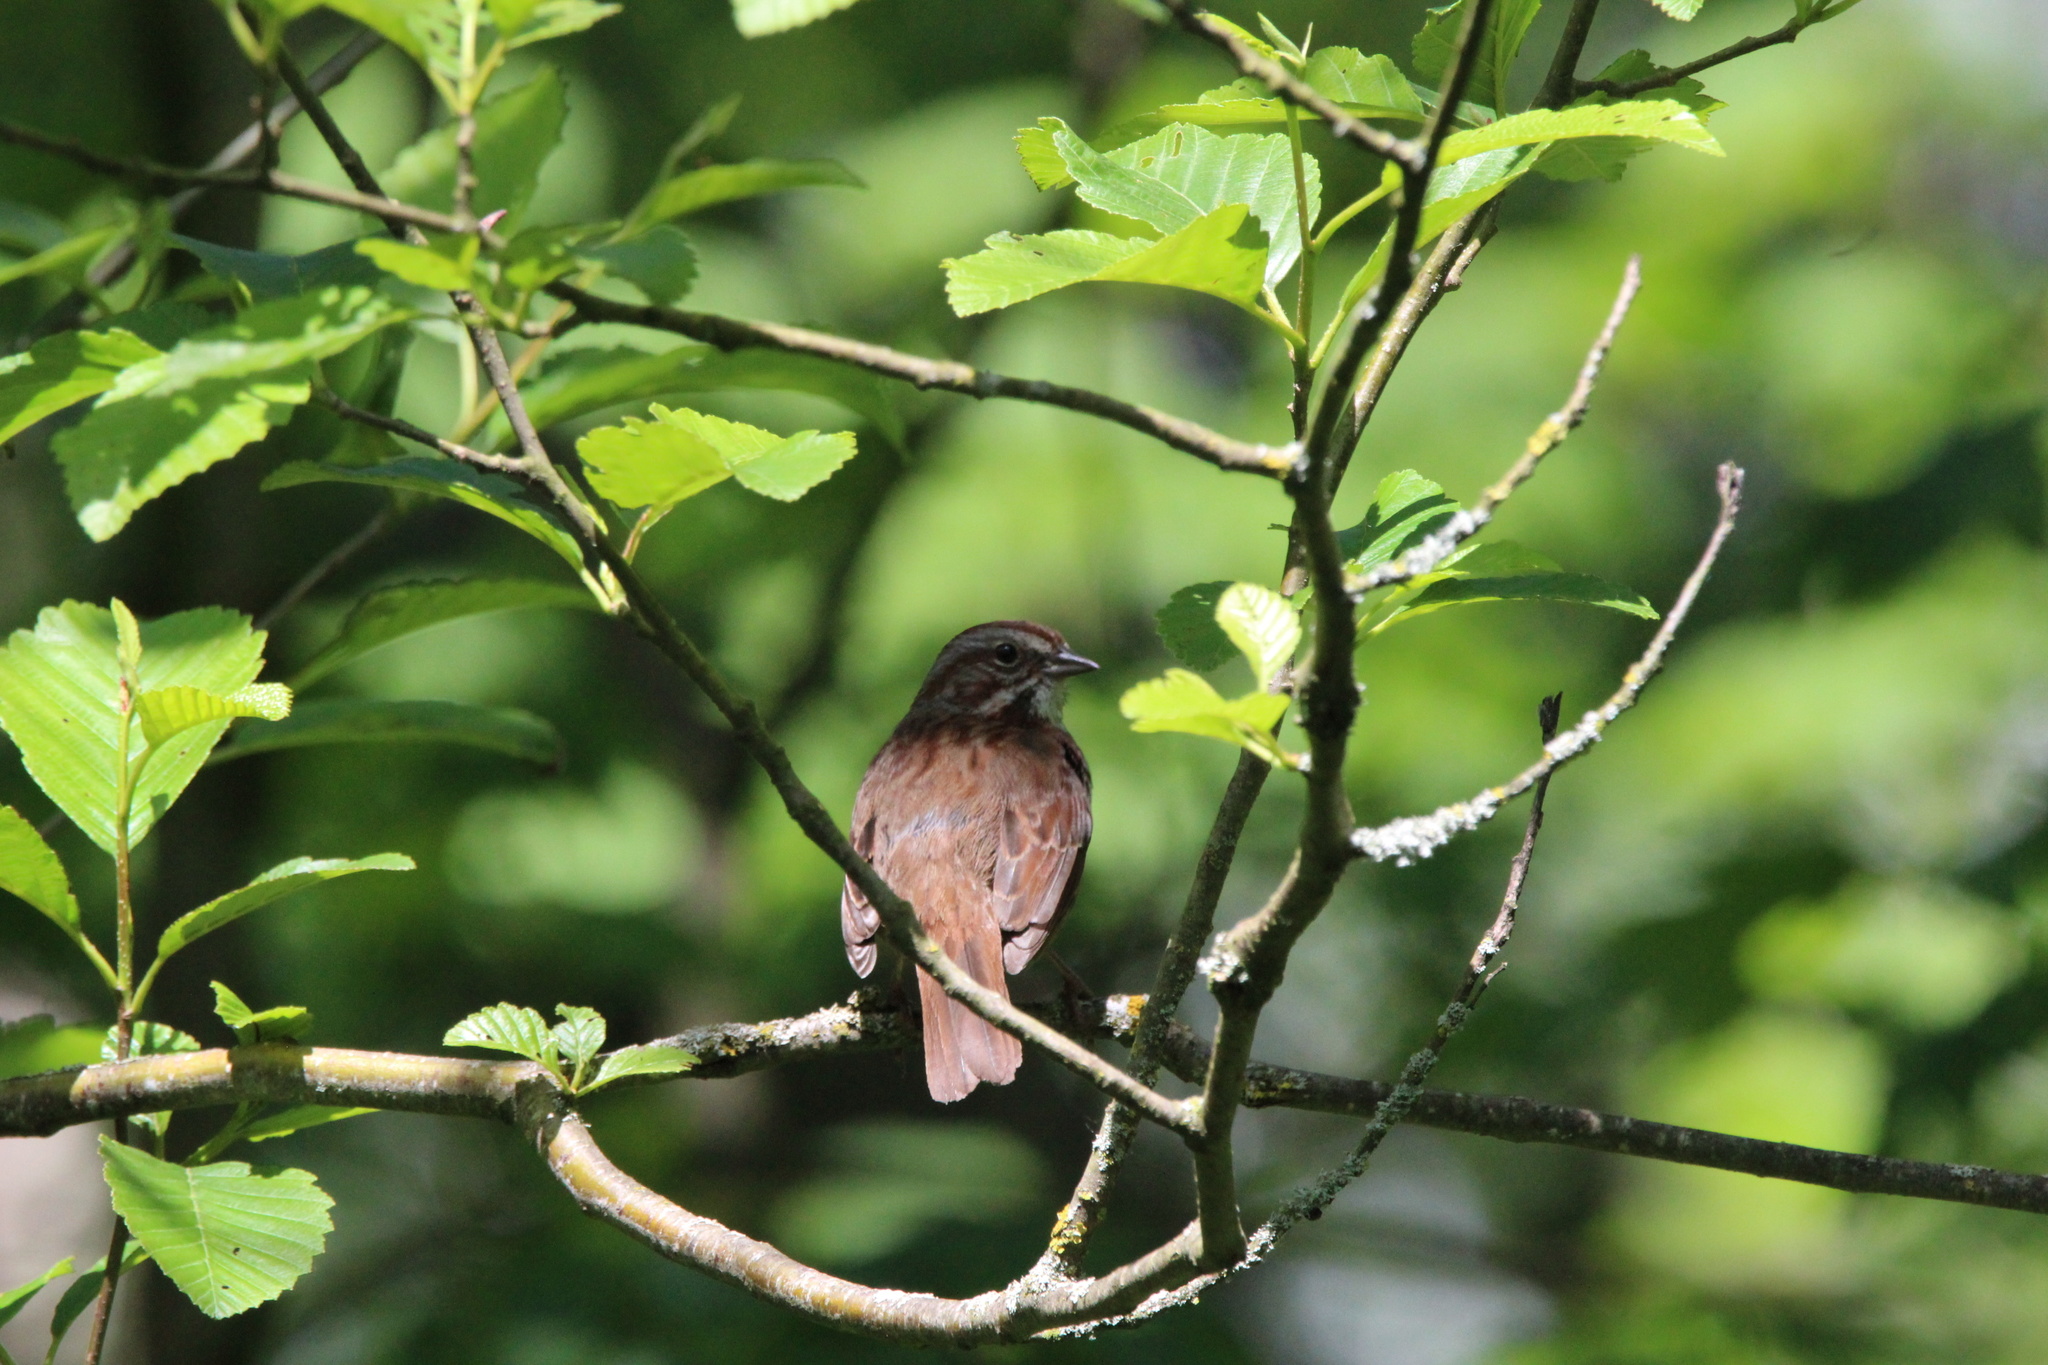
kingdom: Animalia
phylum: Chordata
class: Aves
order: Passeriformes
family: Passerellidae
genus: Melospiza
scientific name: Melospiza melodia
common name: Song sparrow
